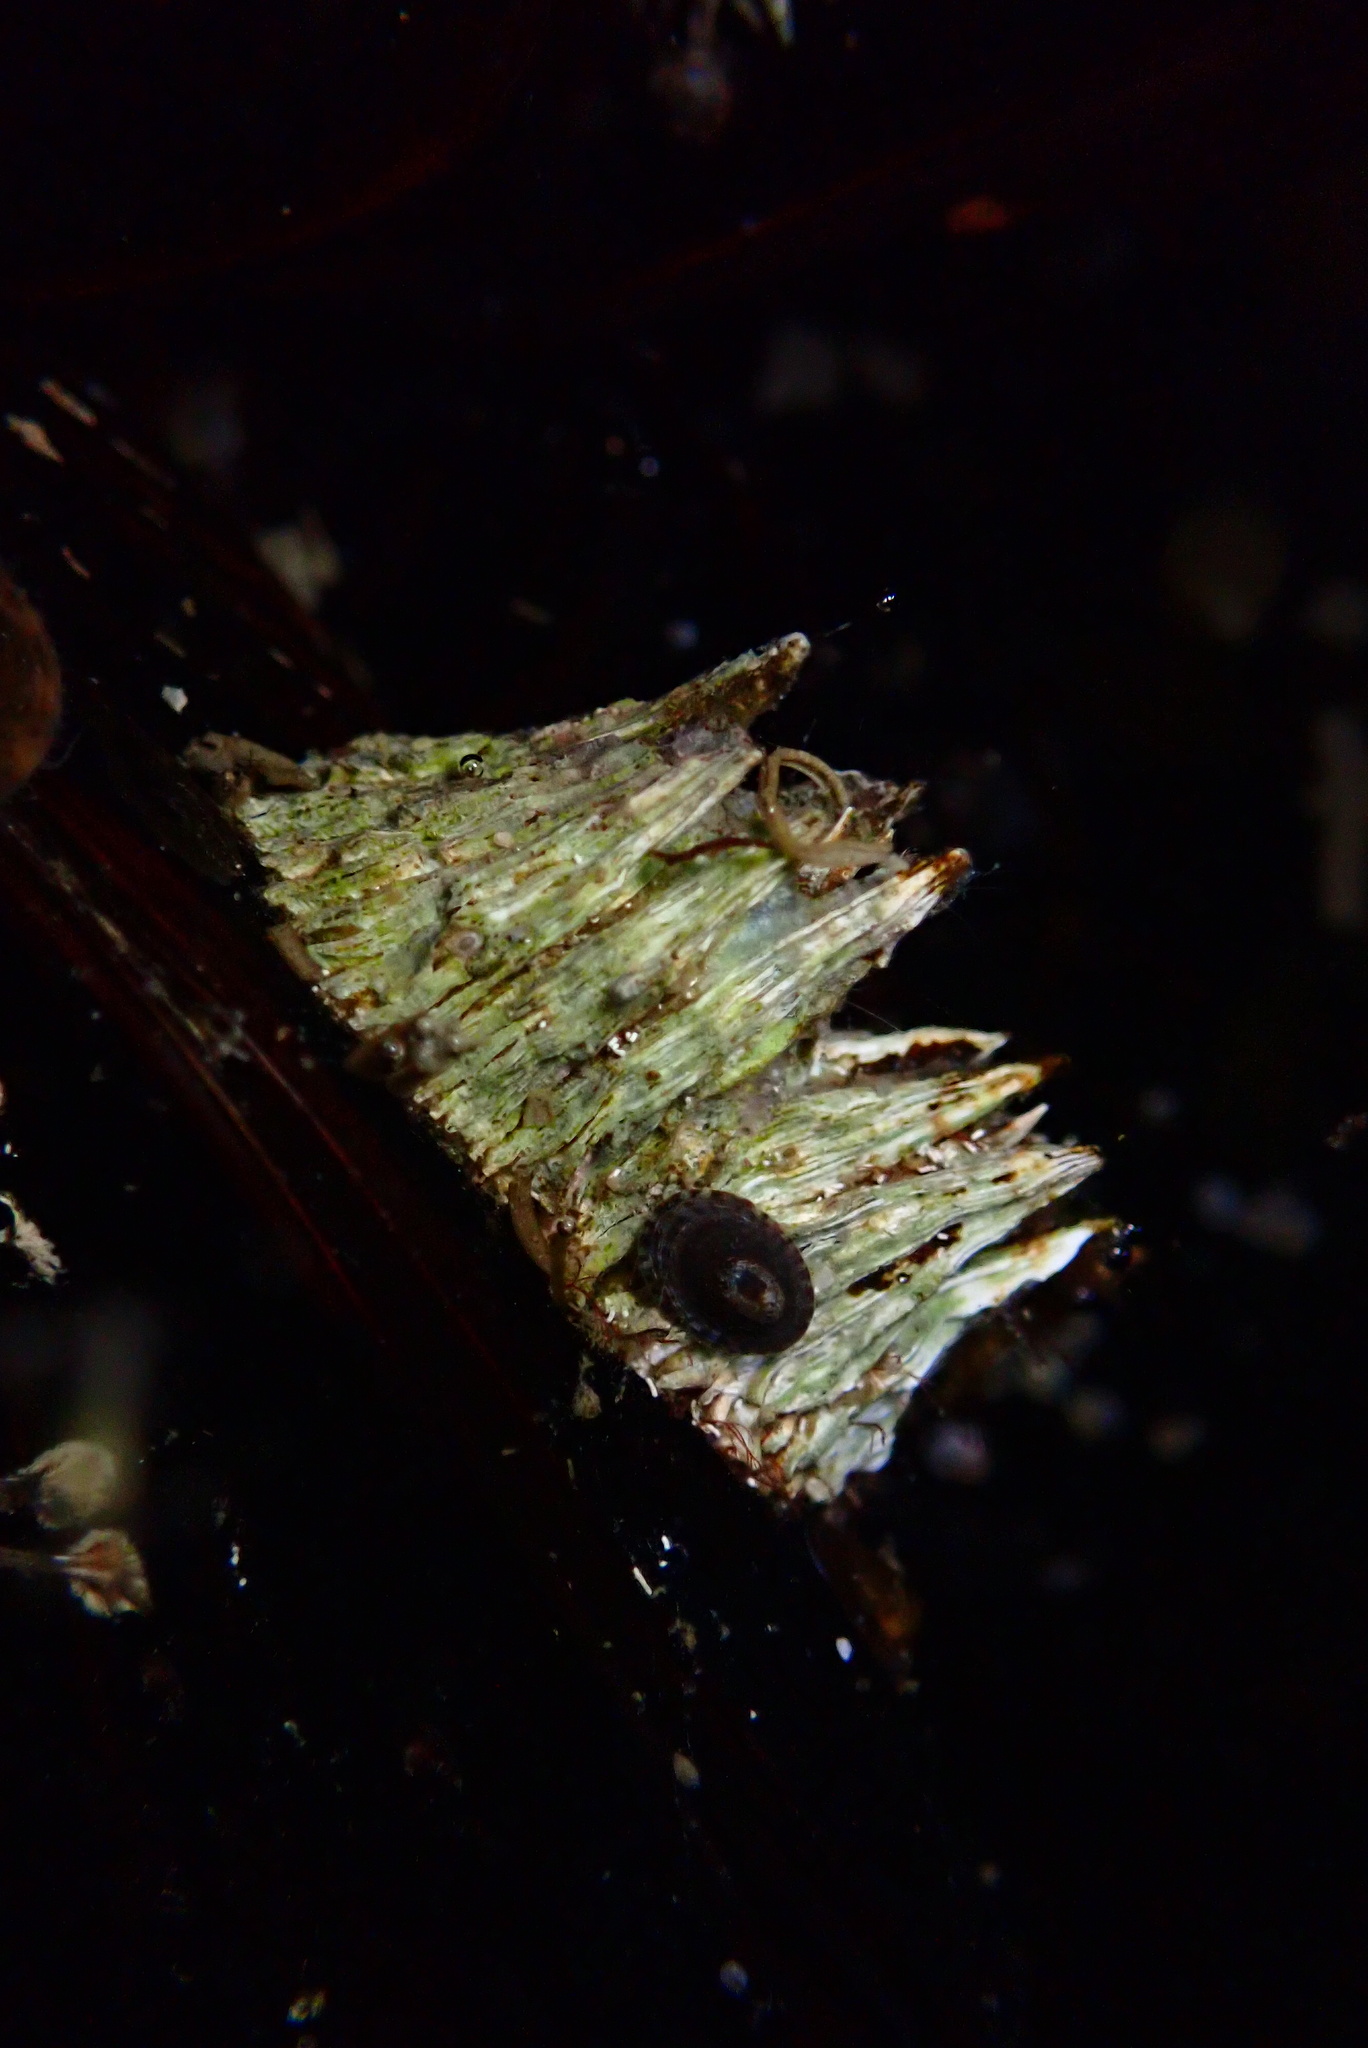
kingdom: Animalia
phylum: Arthropoda
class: Maxillopoda
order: Sessilia
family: Archaeobalanidae
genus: Semibalanus
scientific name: Semibalanus cariosus
